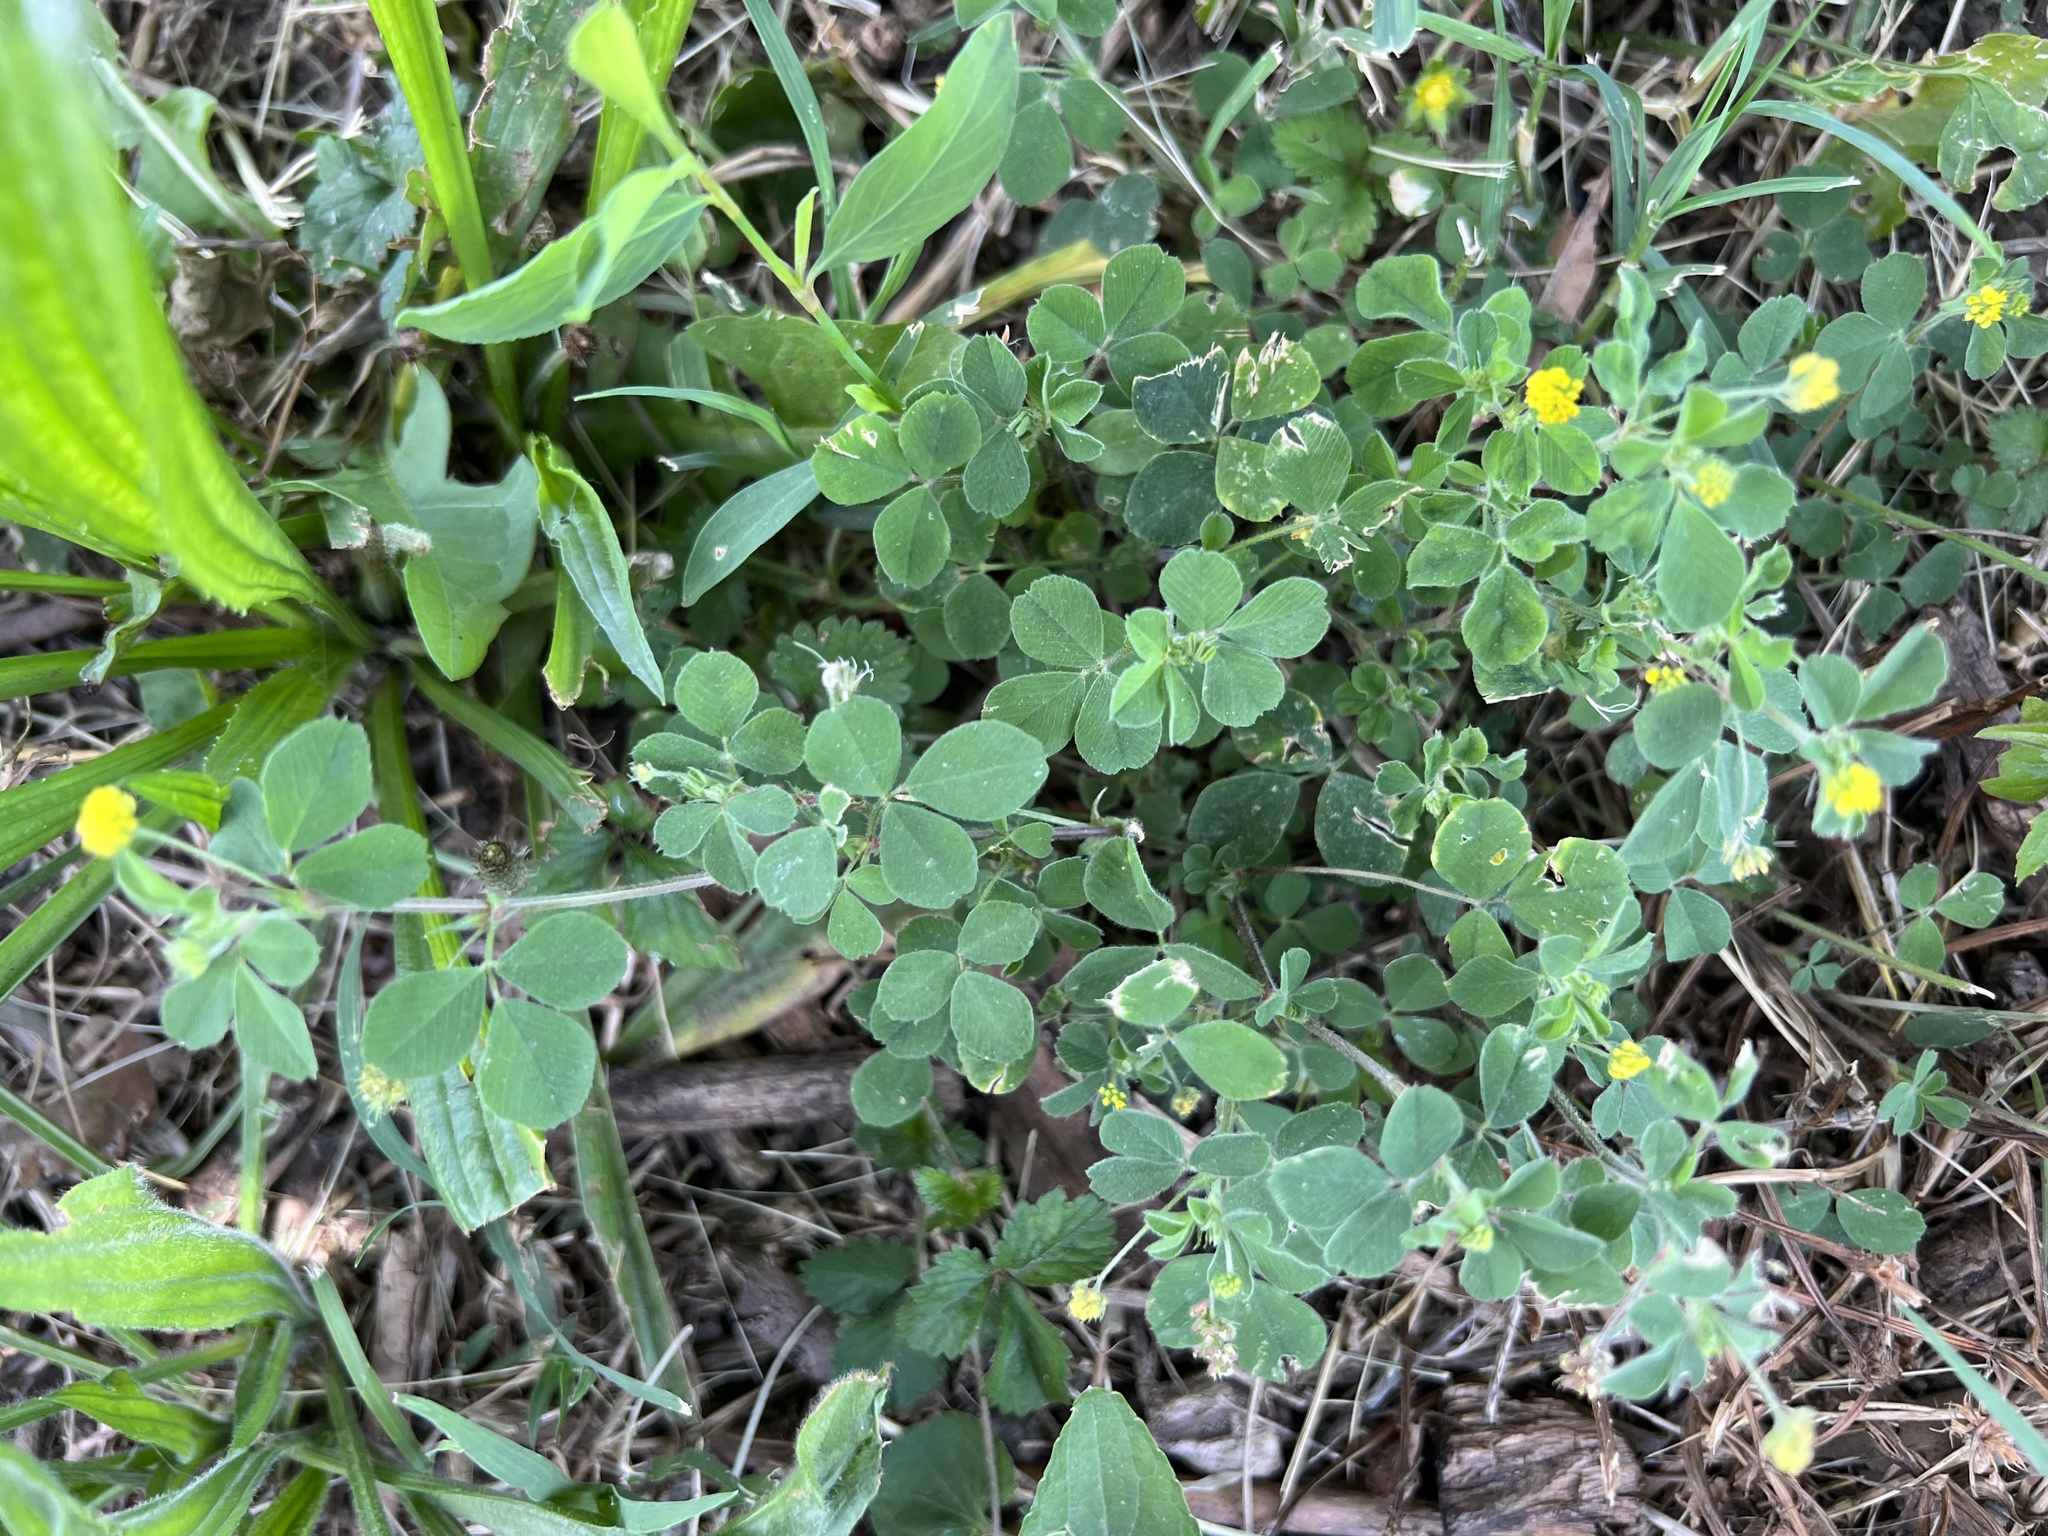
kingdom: Plantae
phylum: Tracheophyta
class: Magnoliopsida
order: Fabales
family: Fabaceae
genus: Medicago
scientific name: Medicago lupulina
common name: Black medick
